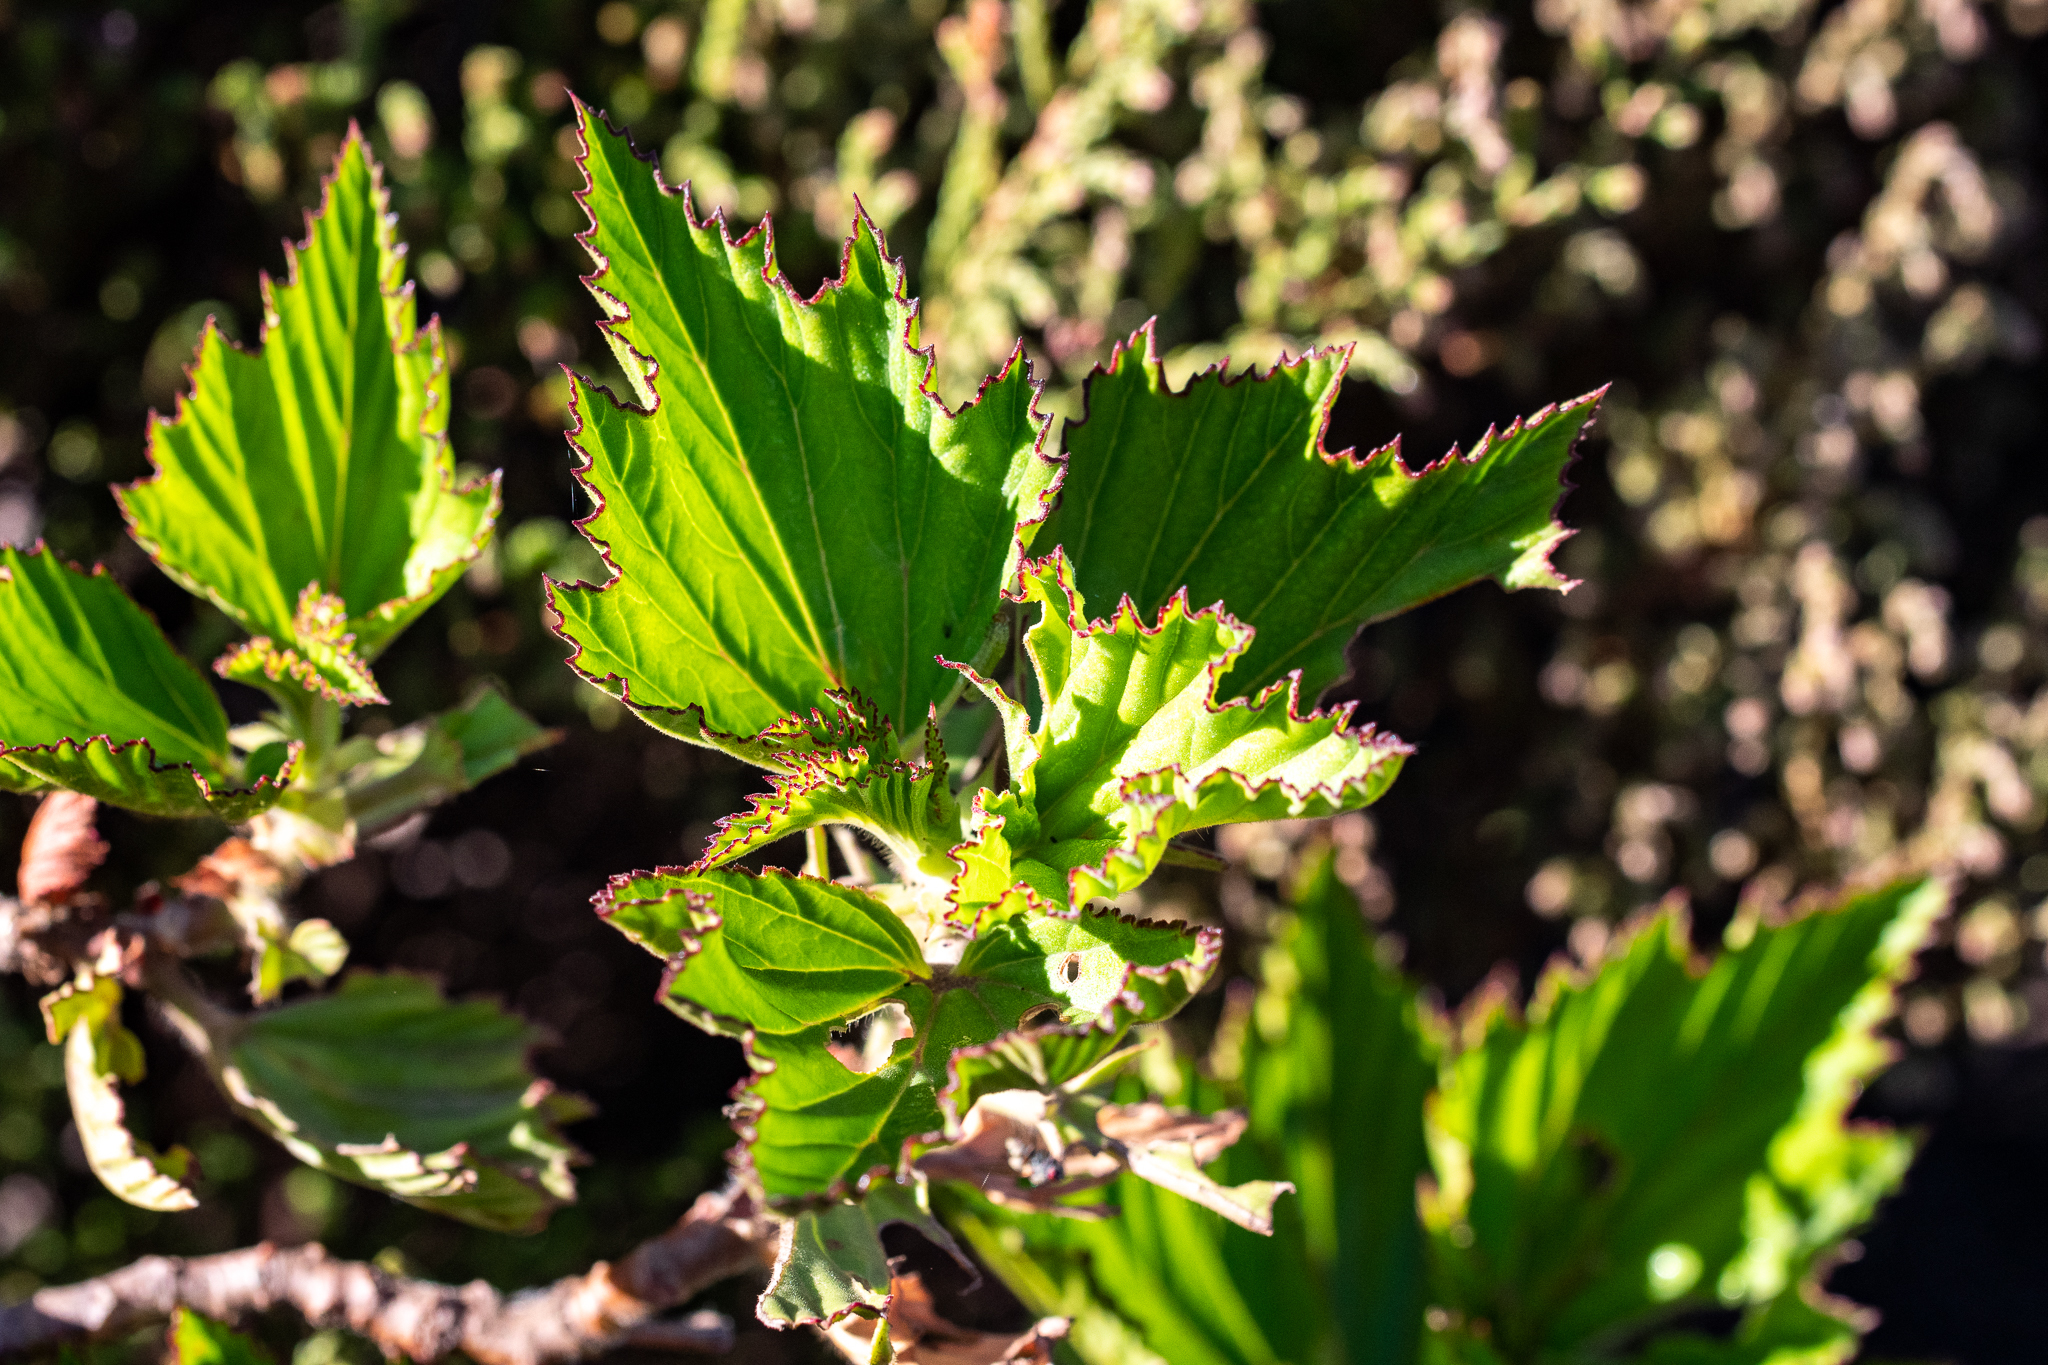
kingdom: Plantae
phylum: Tracheophyta
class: Magnoliopsida
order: Geraniales
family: Geraniaceae
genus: Pelargonium
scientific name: Pelargonium cucullatum
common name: Tree pelargonium
